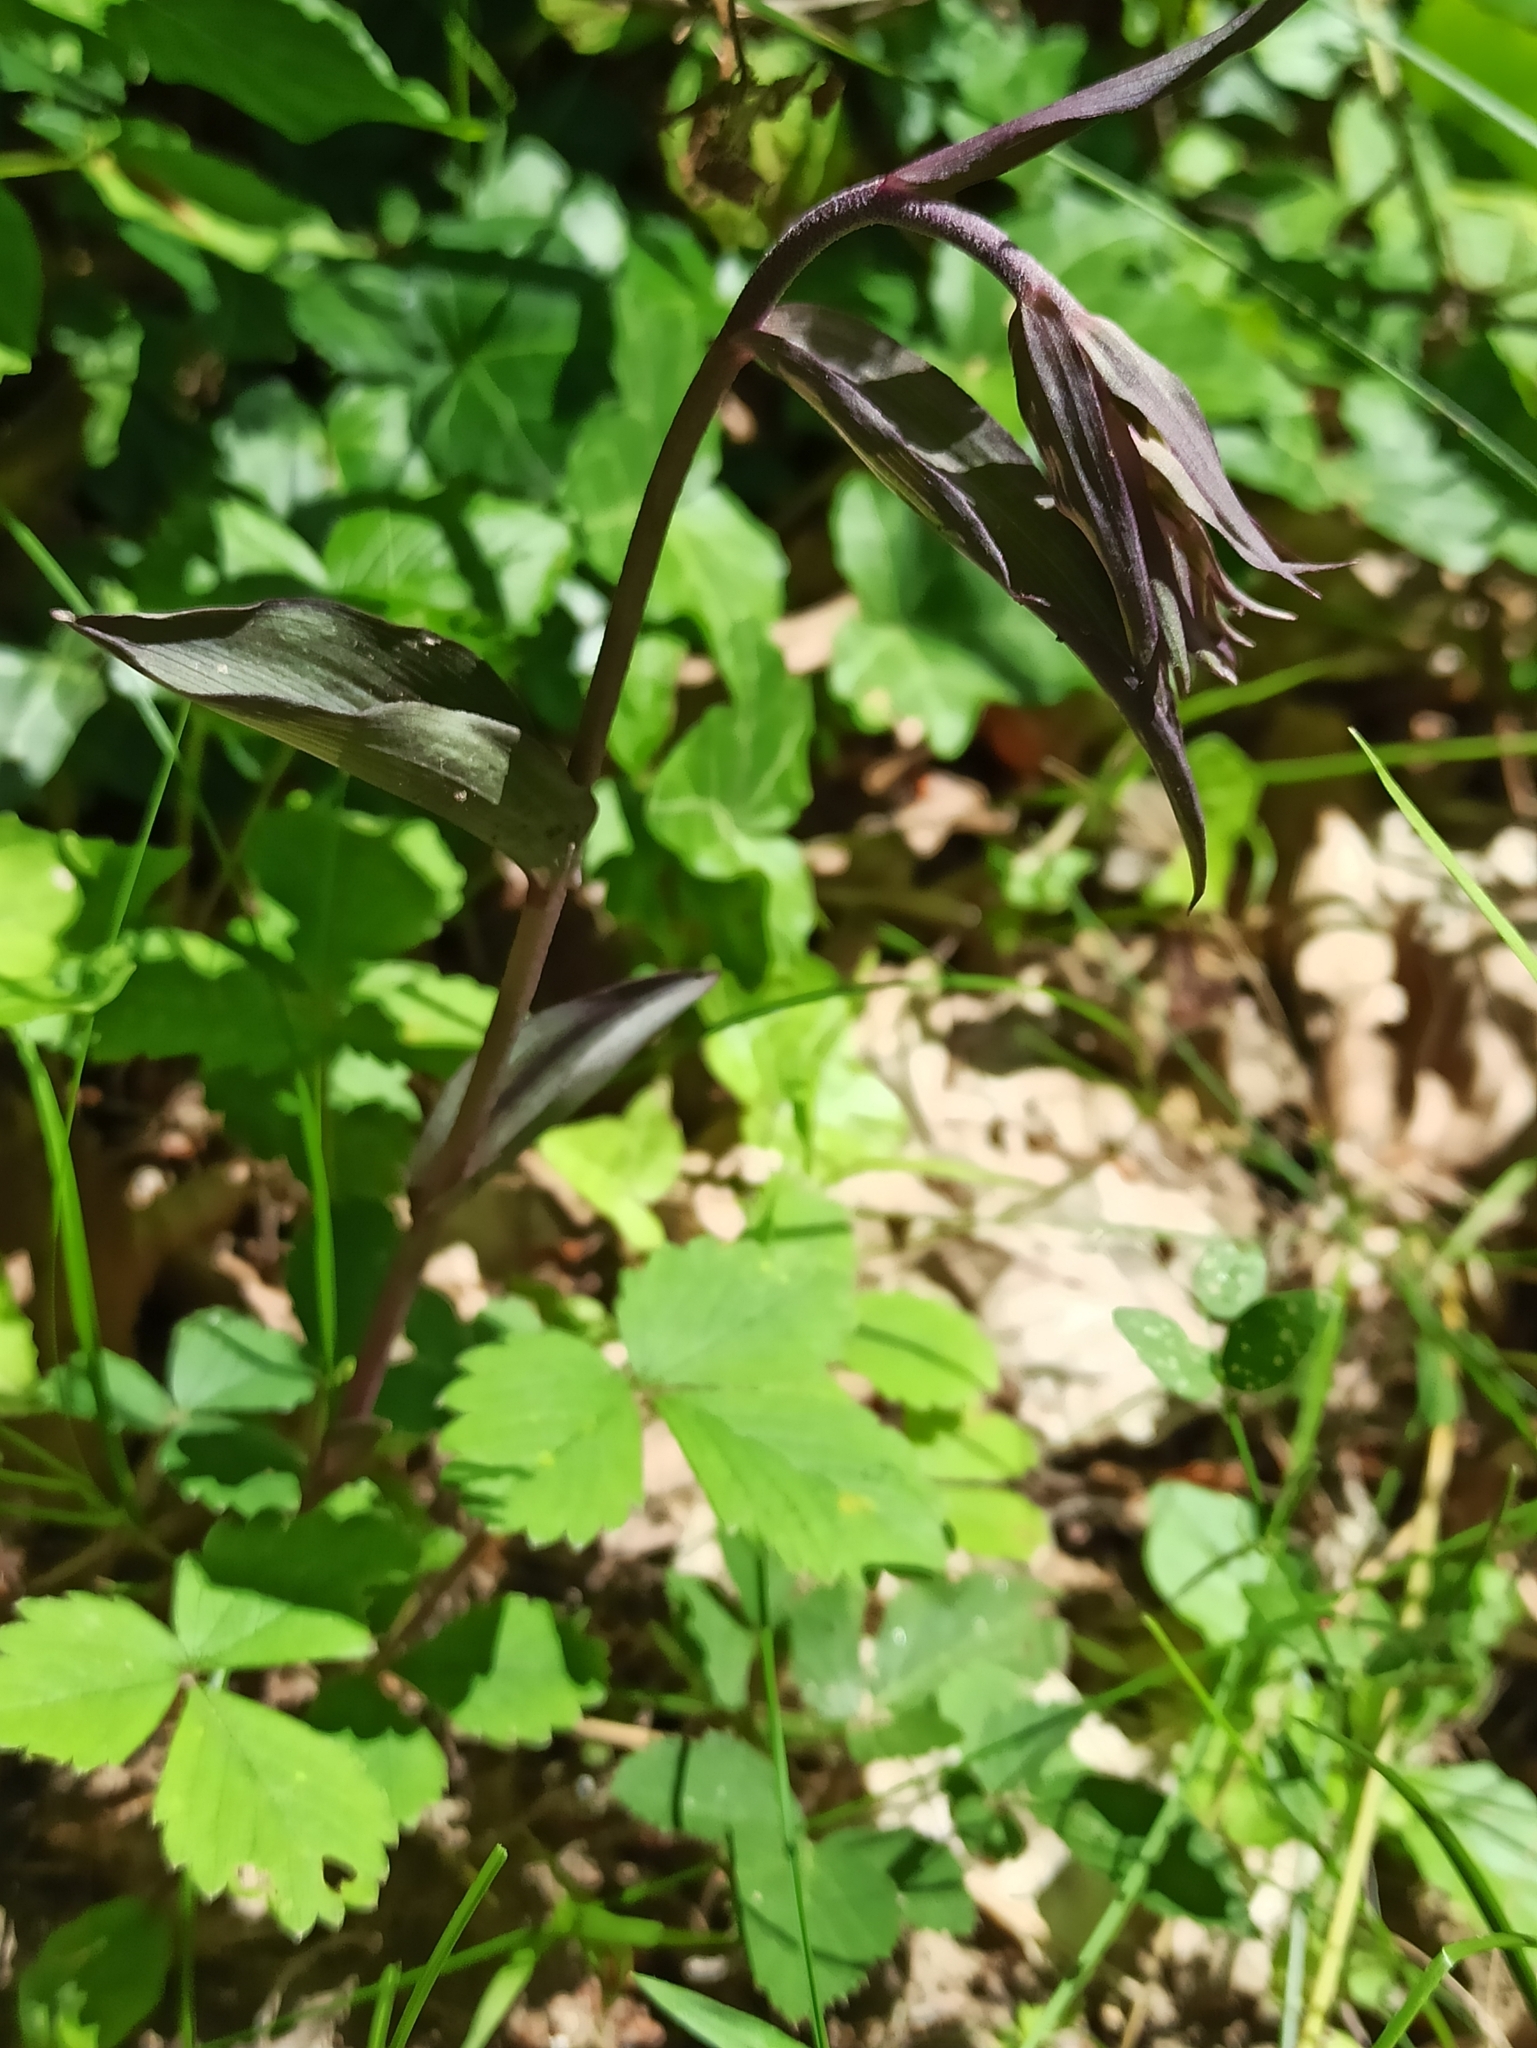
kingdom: Plantae
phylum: Tracheophyta
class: Liliopsida
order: Asparagales
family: Orchidaceae
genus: Epipactis
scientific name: Epipactis purpurata
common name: Violet helleborine
